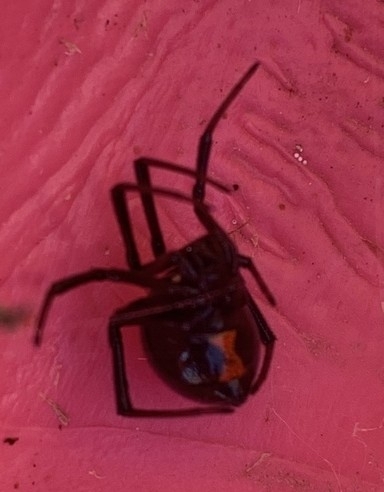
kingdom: Animalia
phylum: Arthropoda
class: Arachnida
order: Araneae
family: Theridiidae
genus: Latrodectus
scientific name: Latrodectus hesperus
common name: Western black widow
